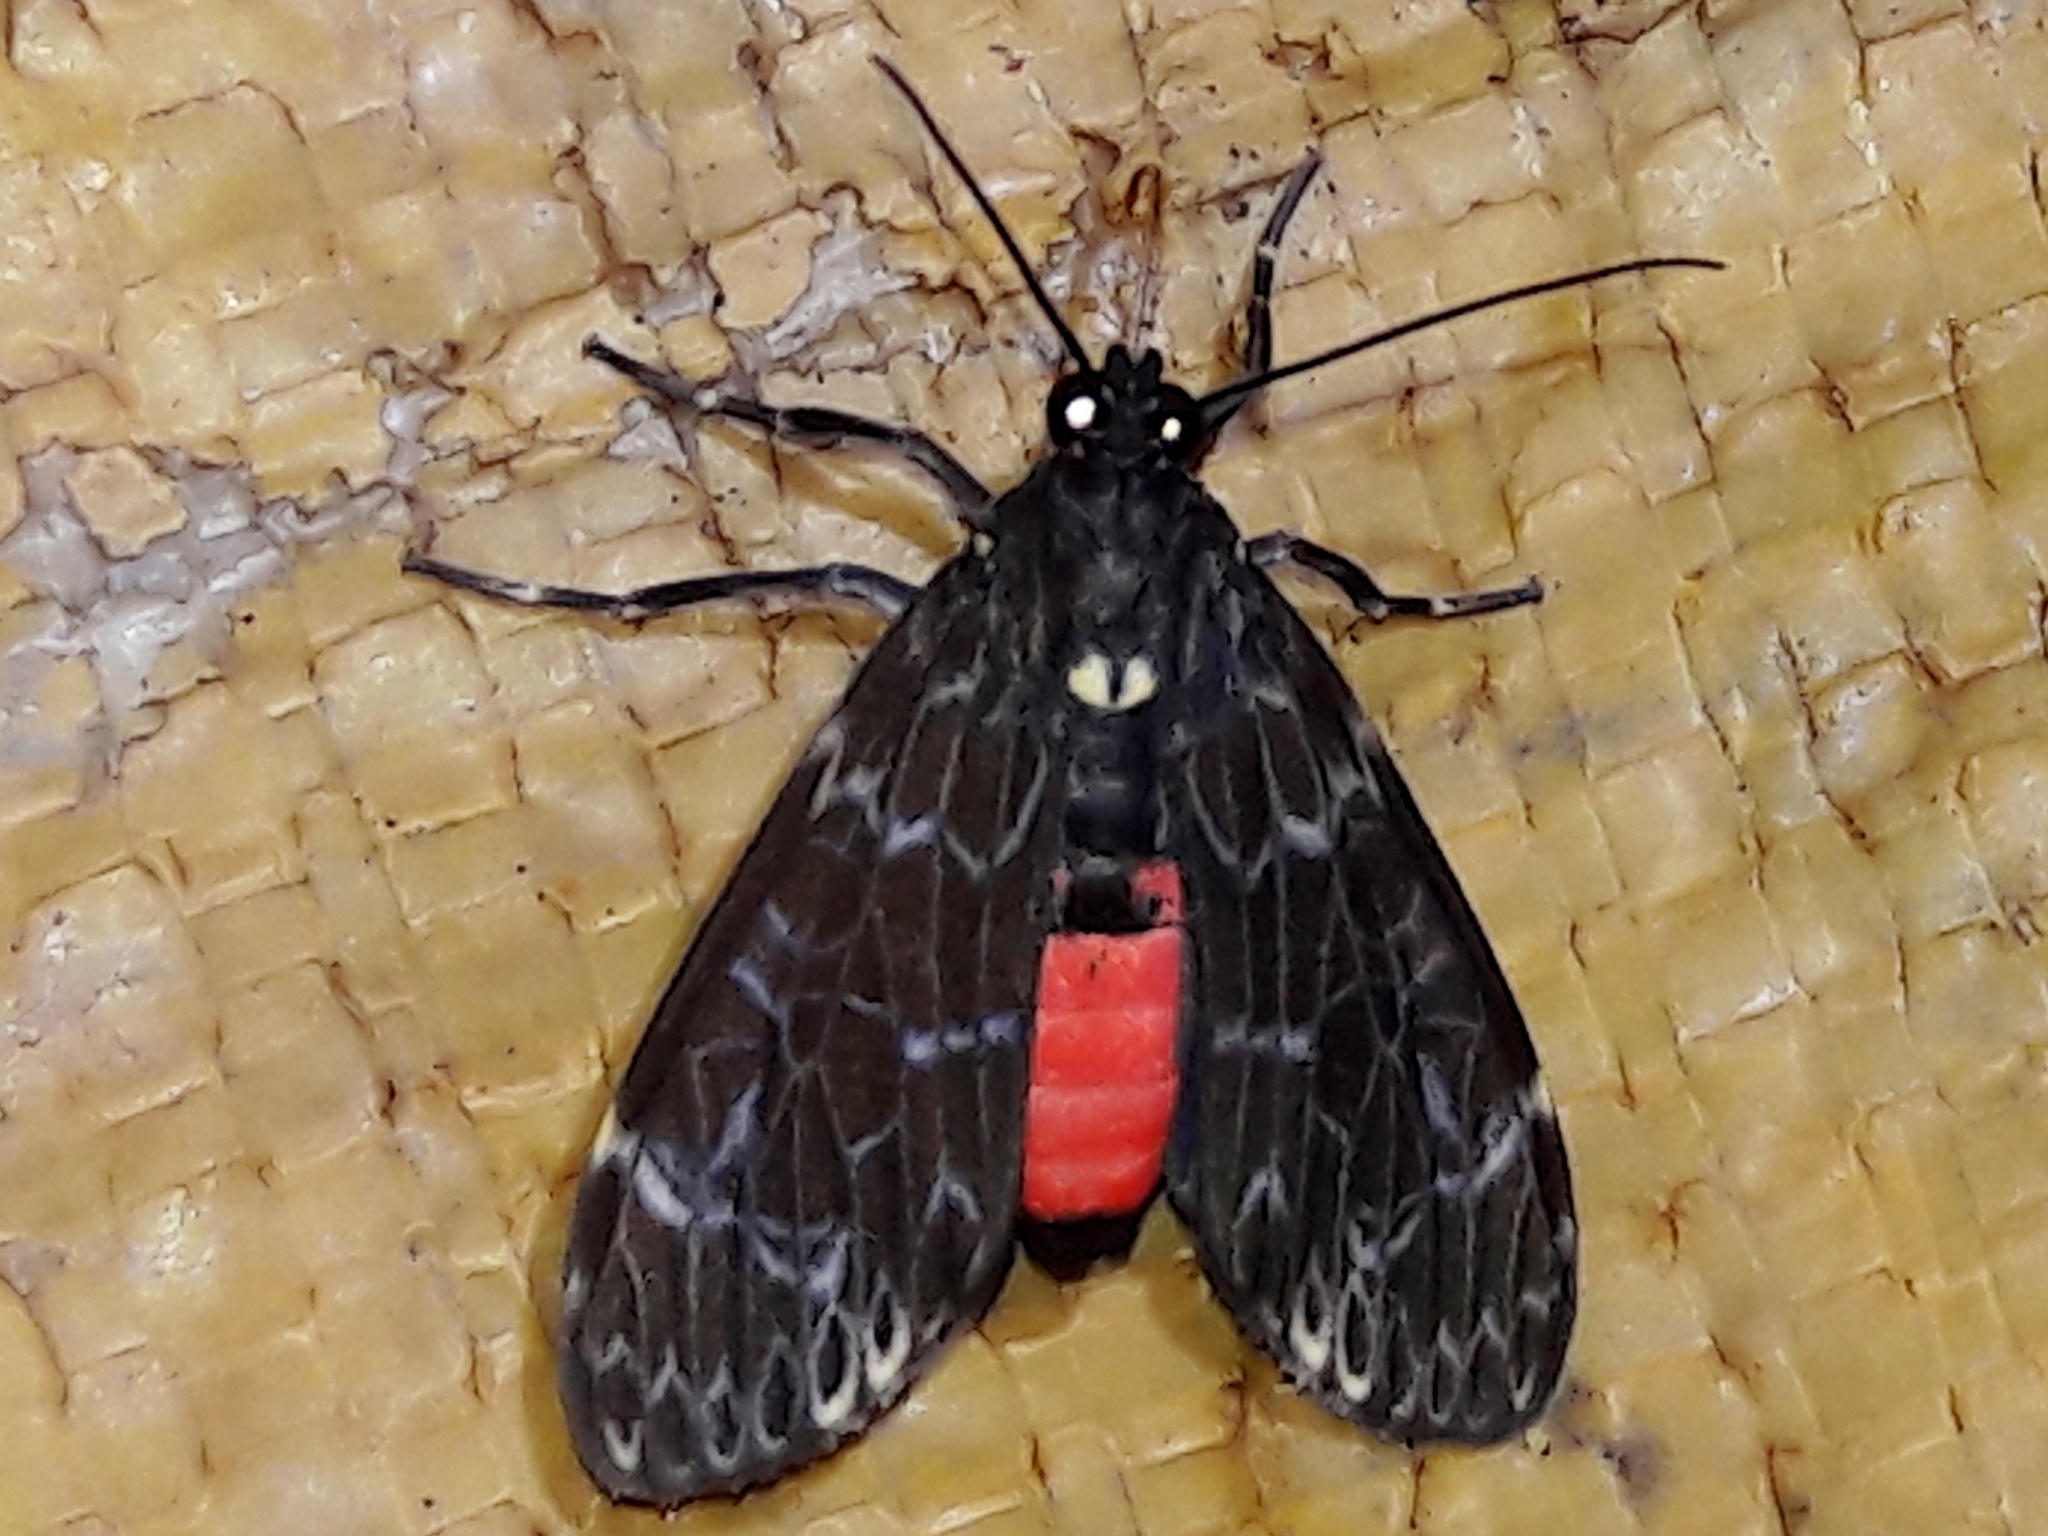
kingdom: Animalia
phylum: Arthropoda
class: Insecta
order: Lepidoptera
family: Erebidae
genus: Eucereon
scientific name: Eucereon sylvius
